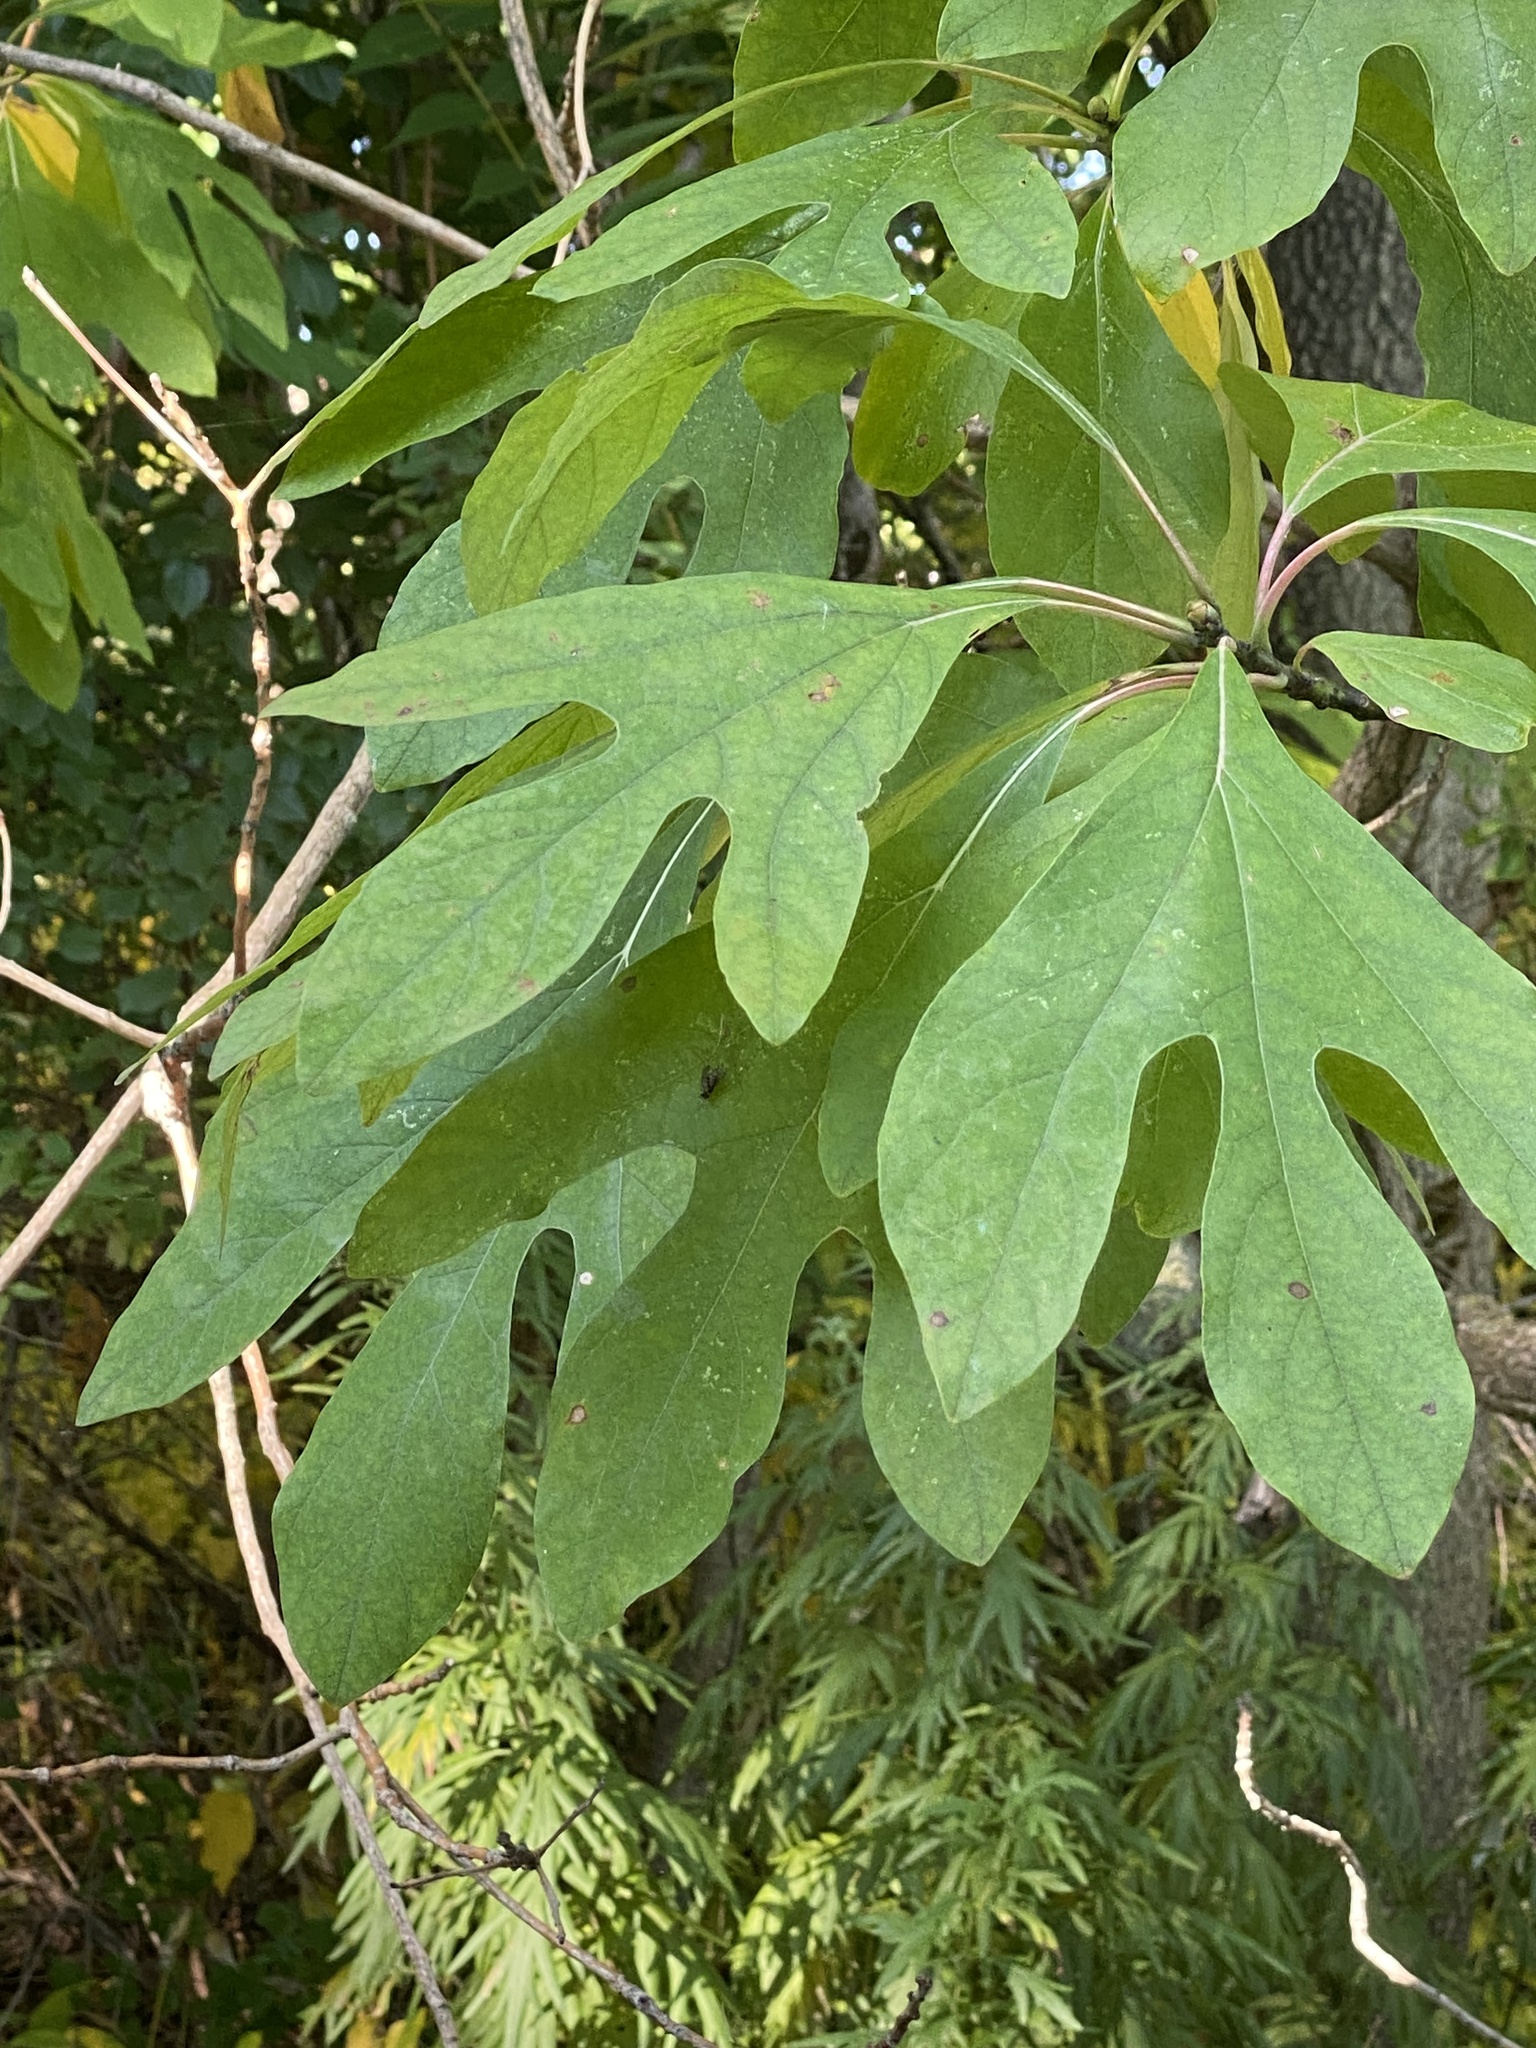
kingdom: Plantae
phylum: Tracheophyta
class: Magnoliopsida
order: Laurales
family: Lauraceae
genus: Sassafras
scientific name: Sassafras albidum
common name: Sassafras
